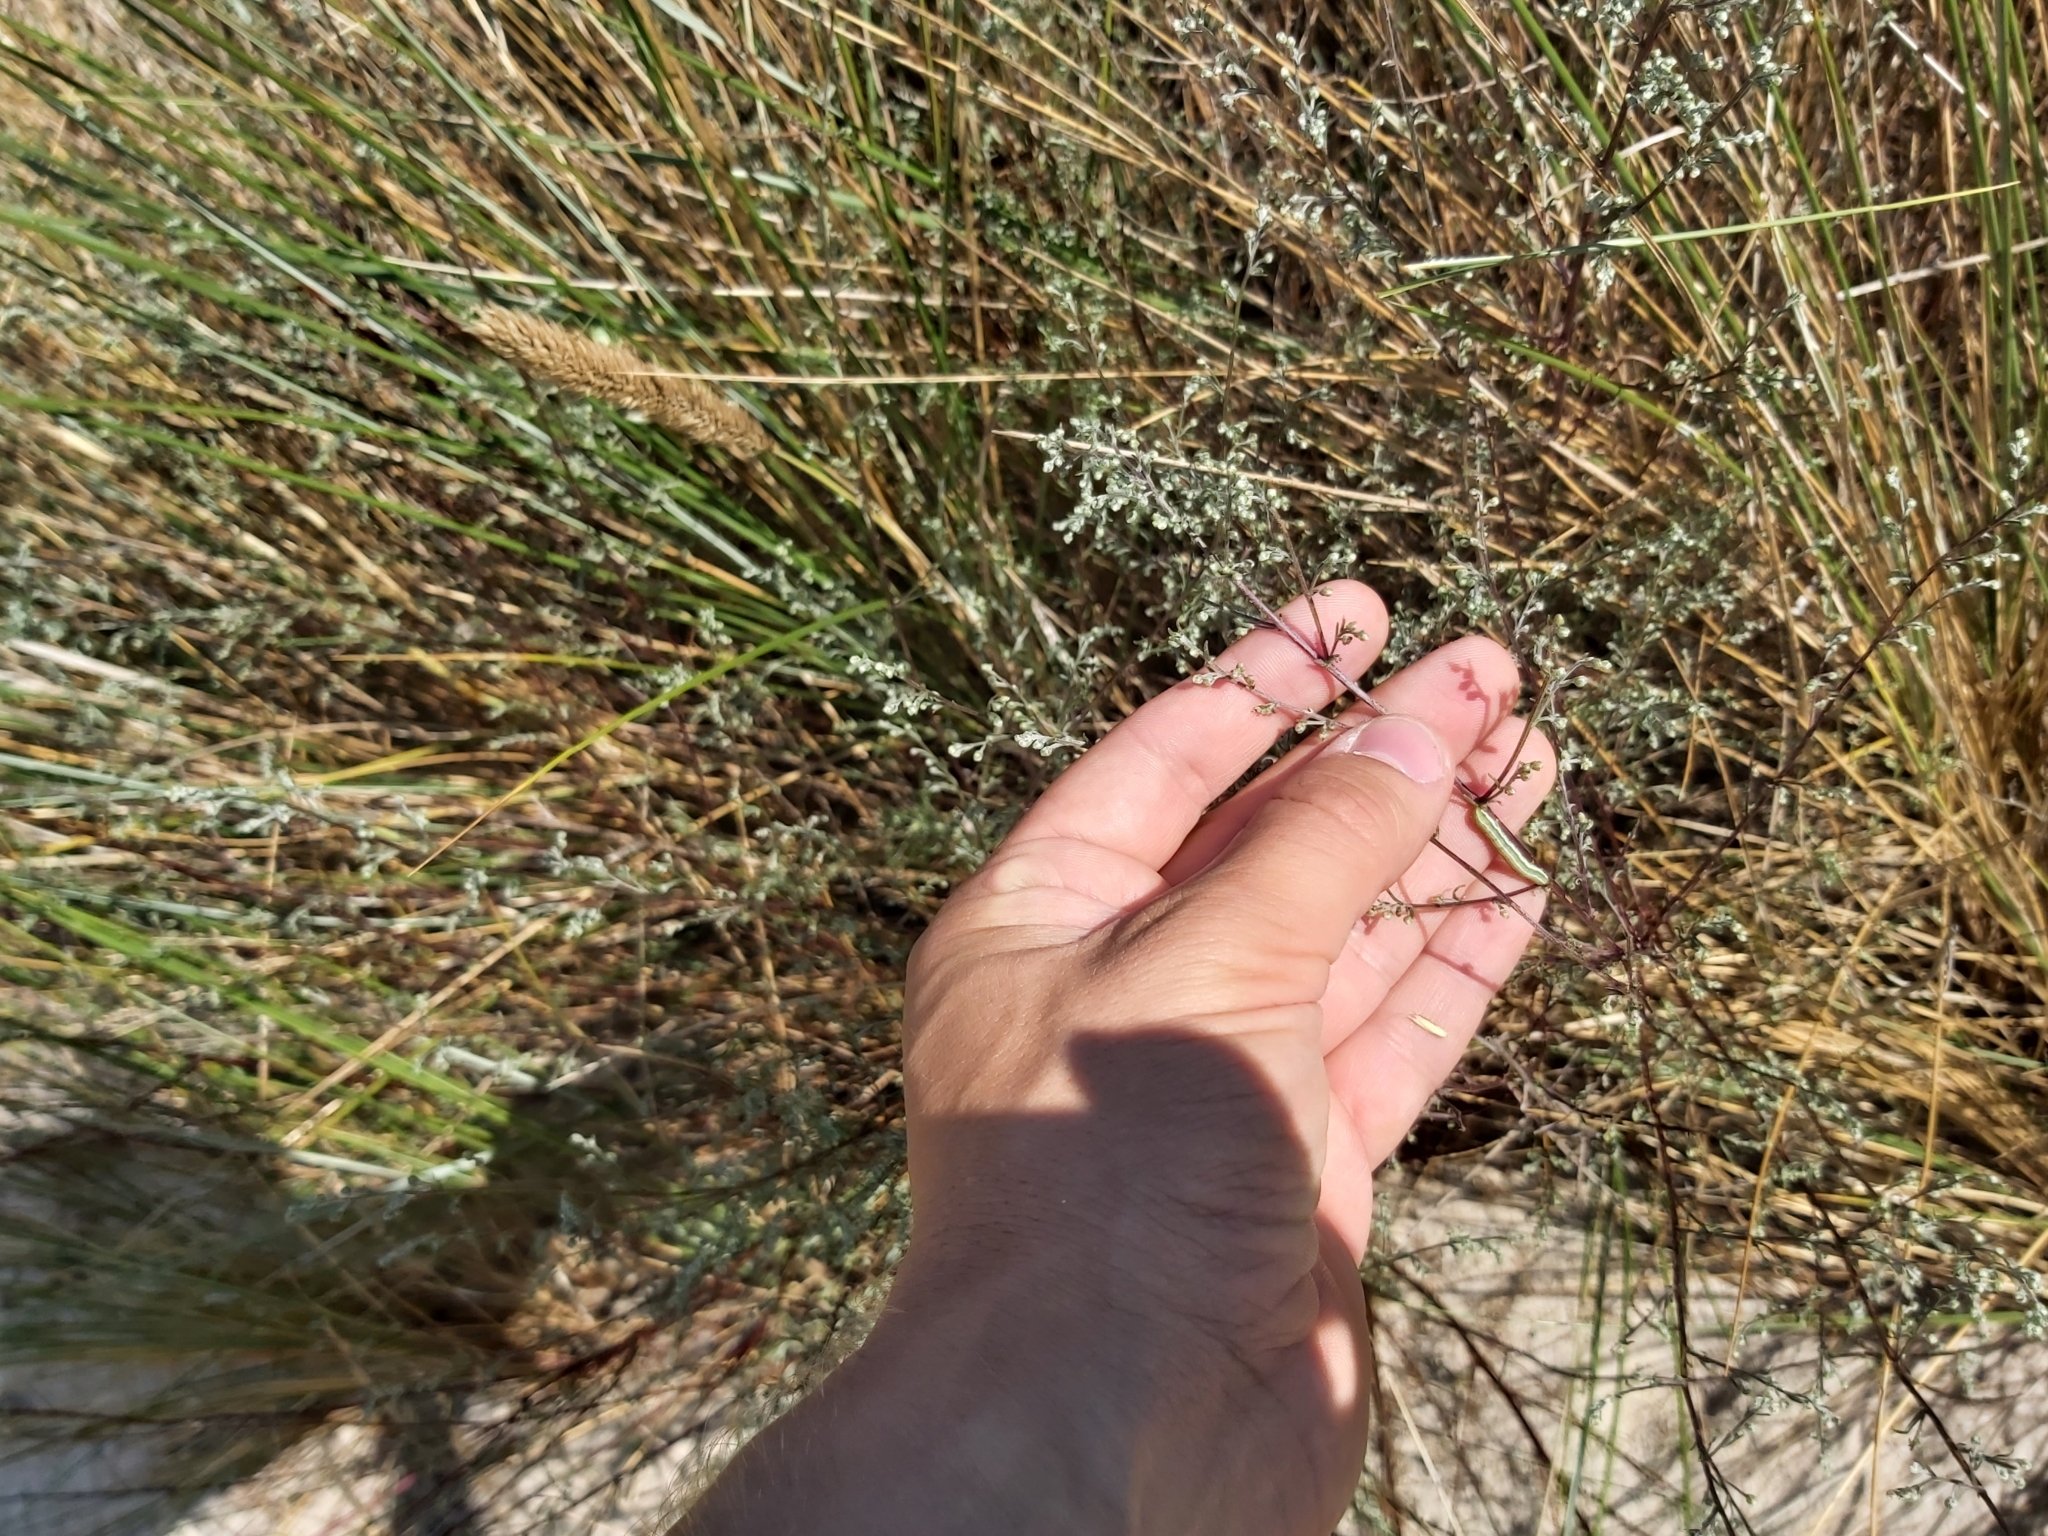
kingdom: Plantae
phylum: Tracheophyta
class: Magnoliopsida
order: Asterales
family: Asteraceae
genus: Artemisia
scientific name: Artemisia campestris
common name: Field wormwood
